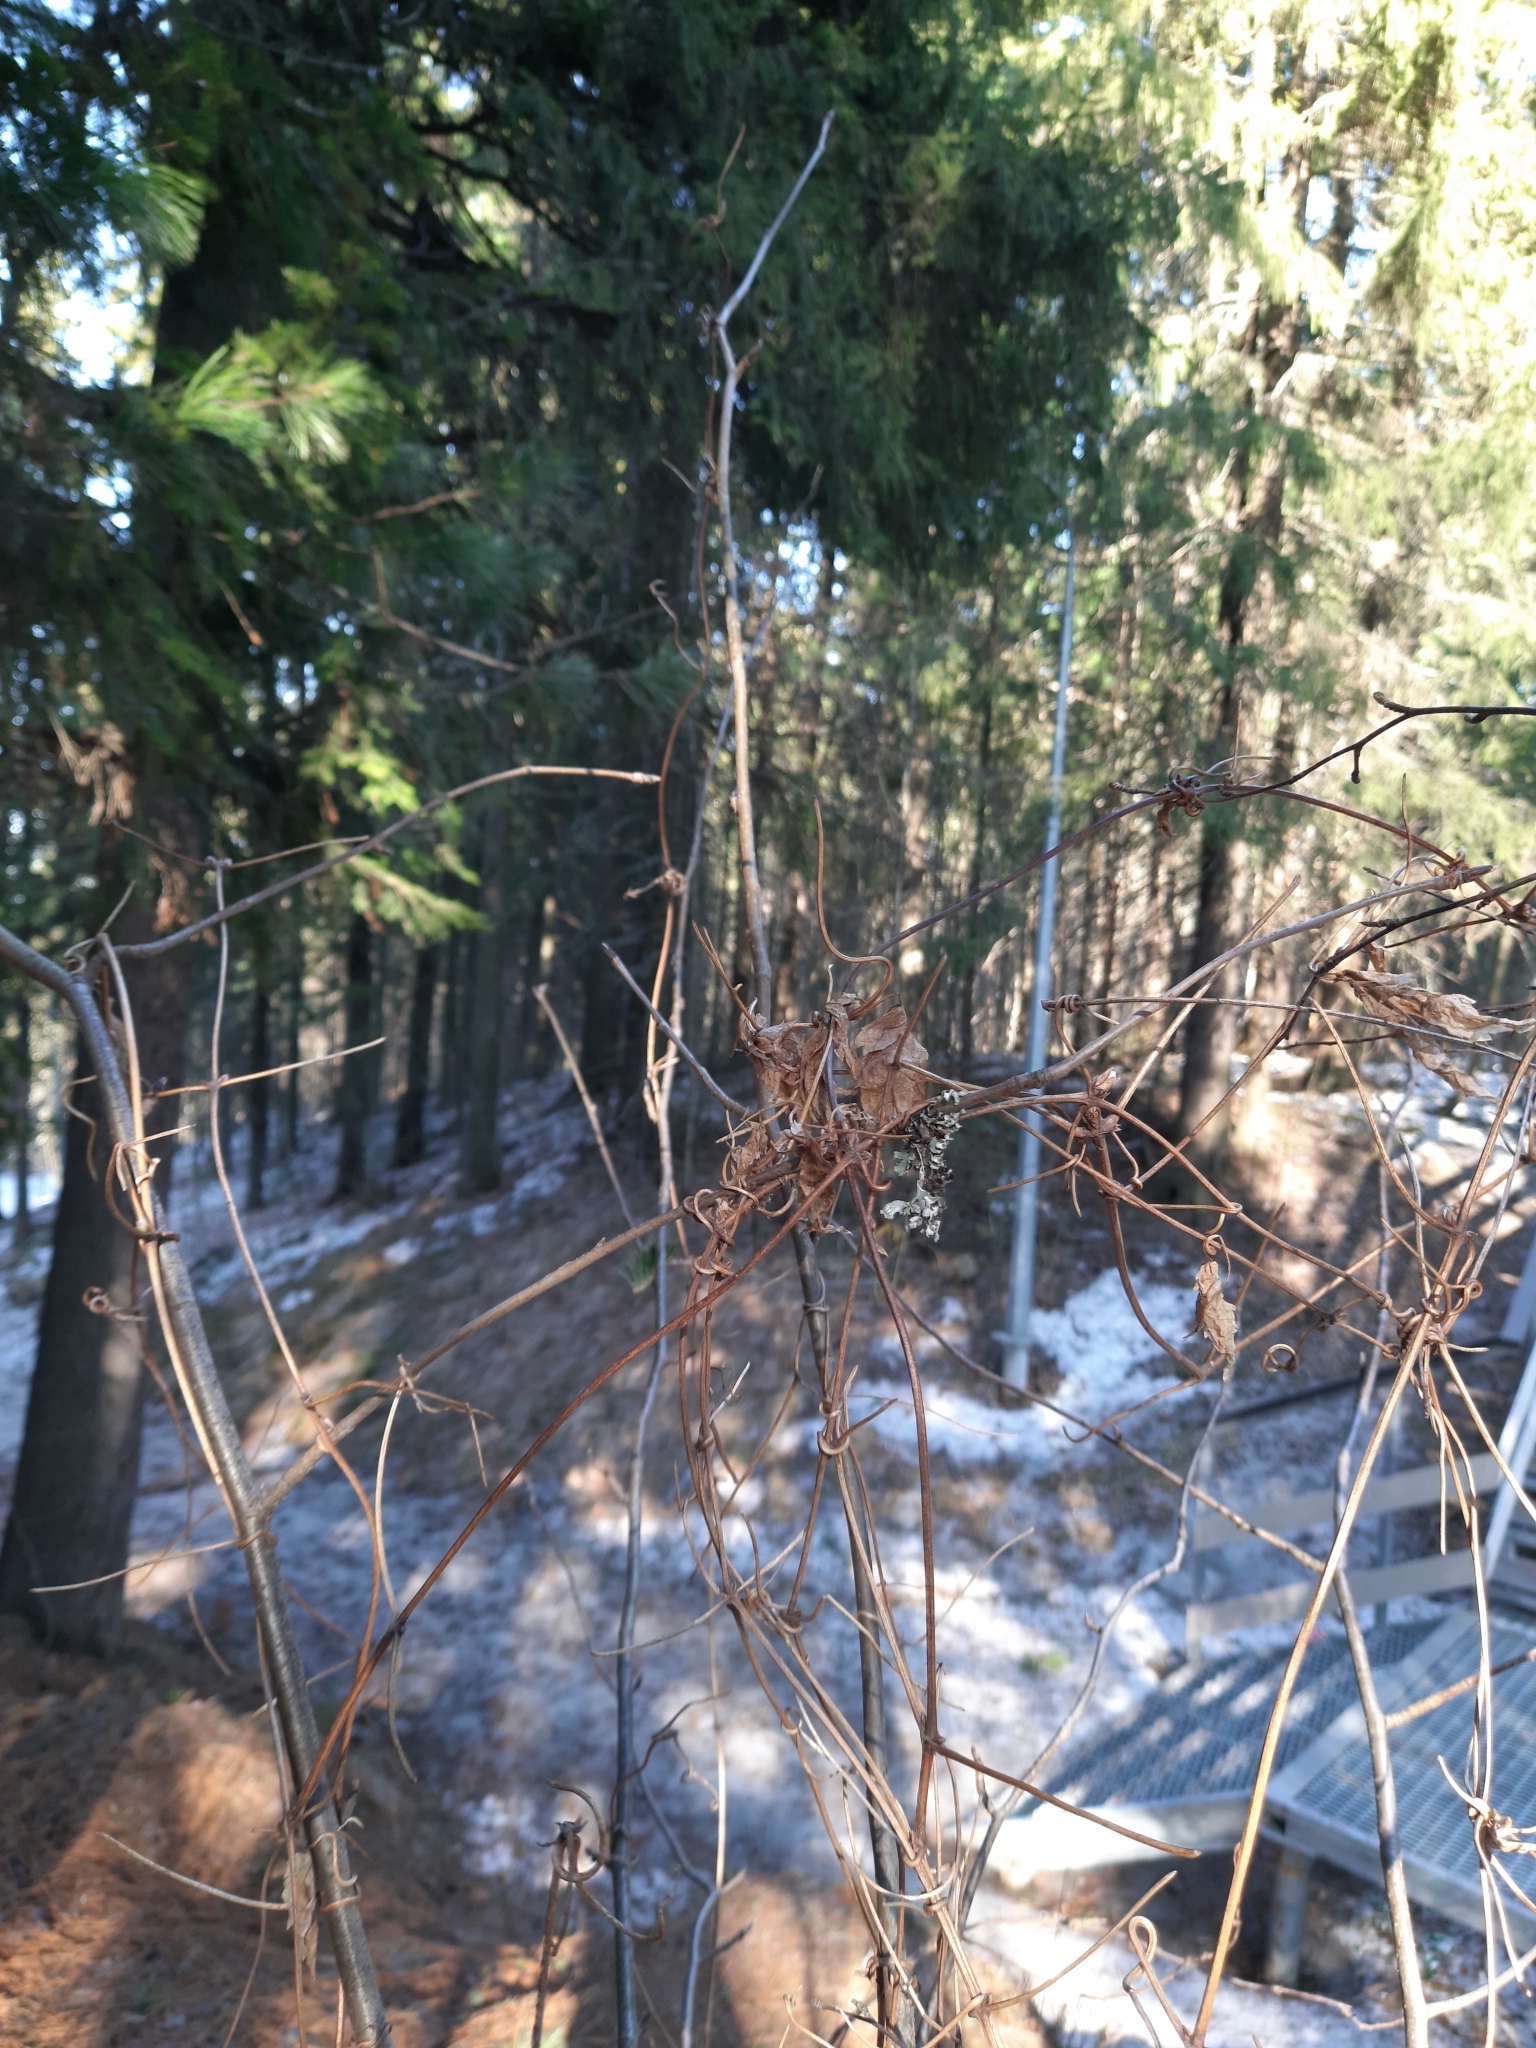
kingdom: Plantae
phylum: Tracheophyta
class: Magnoliopsida
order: Ranunculales
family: Ranunculaceae
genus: Clematis
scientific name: Clematis sibirica
